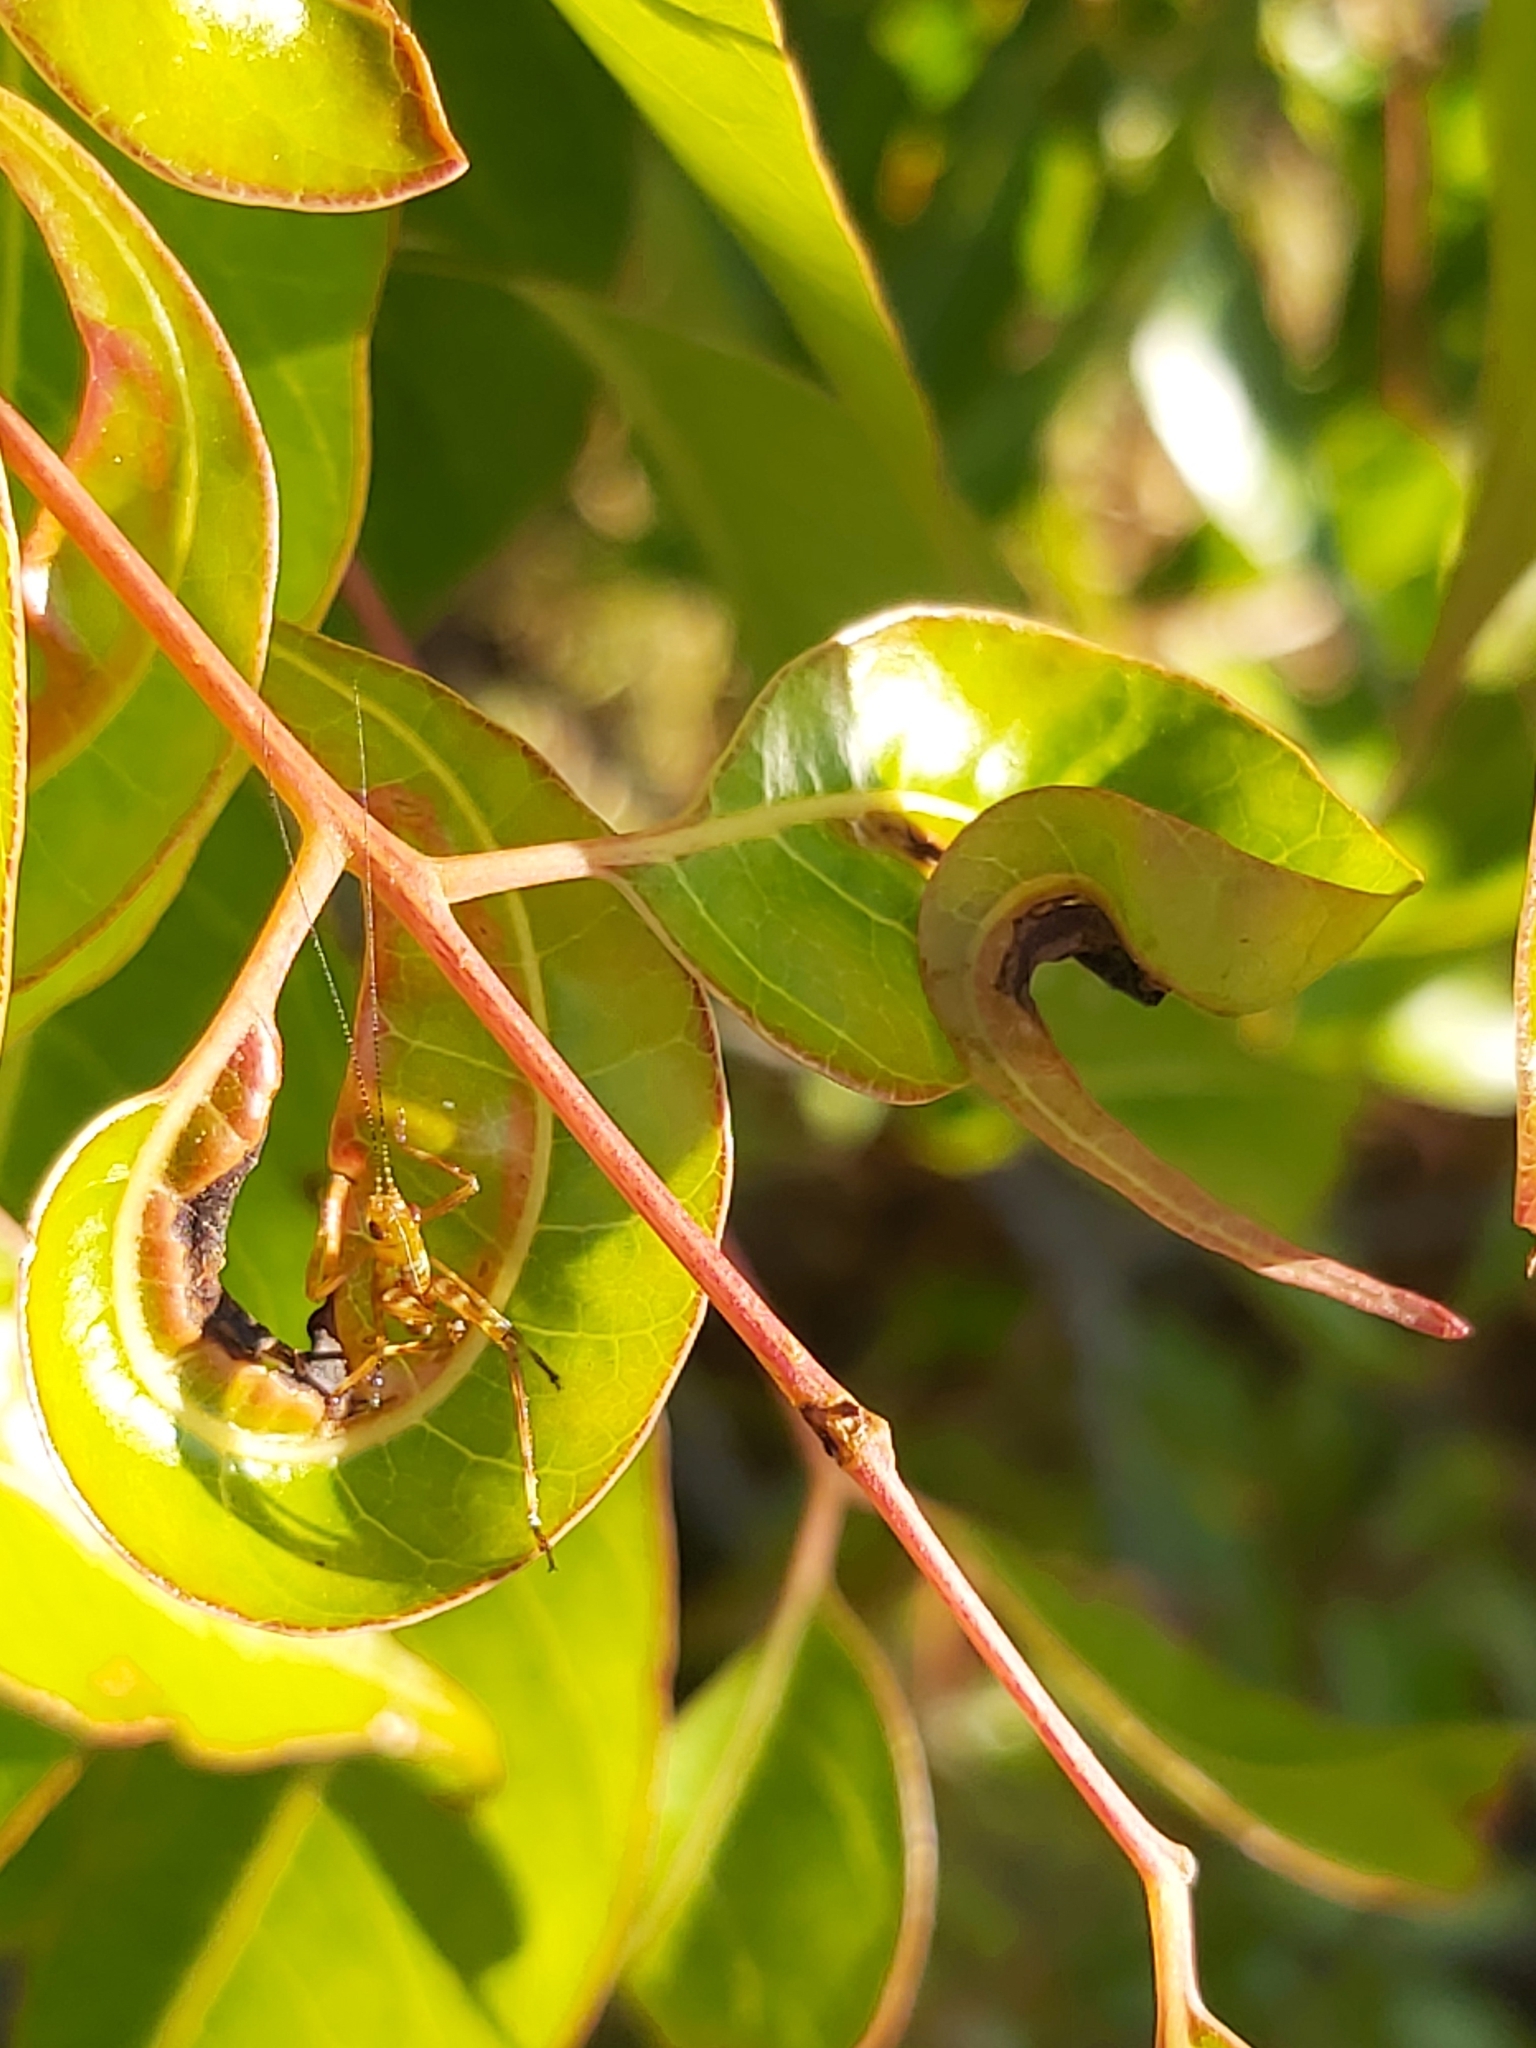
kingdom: Animalia
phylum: Arthropoda
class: Insecta
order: Orthoptera
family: Tettigoniidae
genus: Paracaedicia
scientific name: Paracaedicia serrata
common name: Serrated bush katydid
